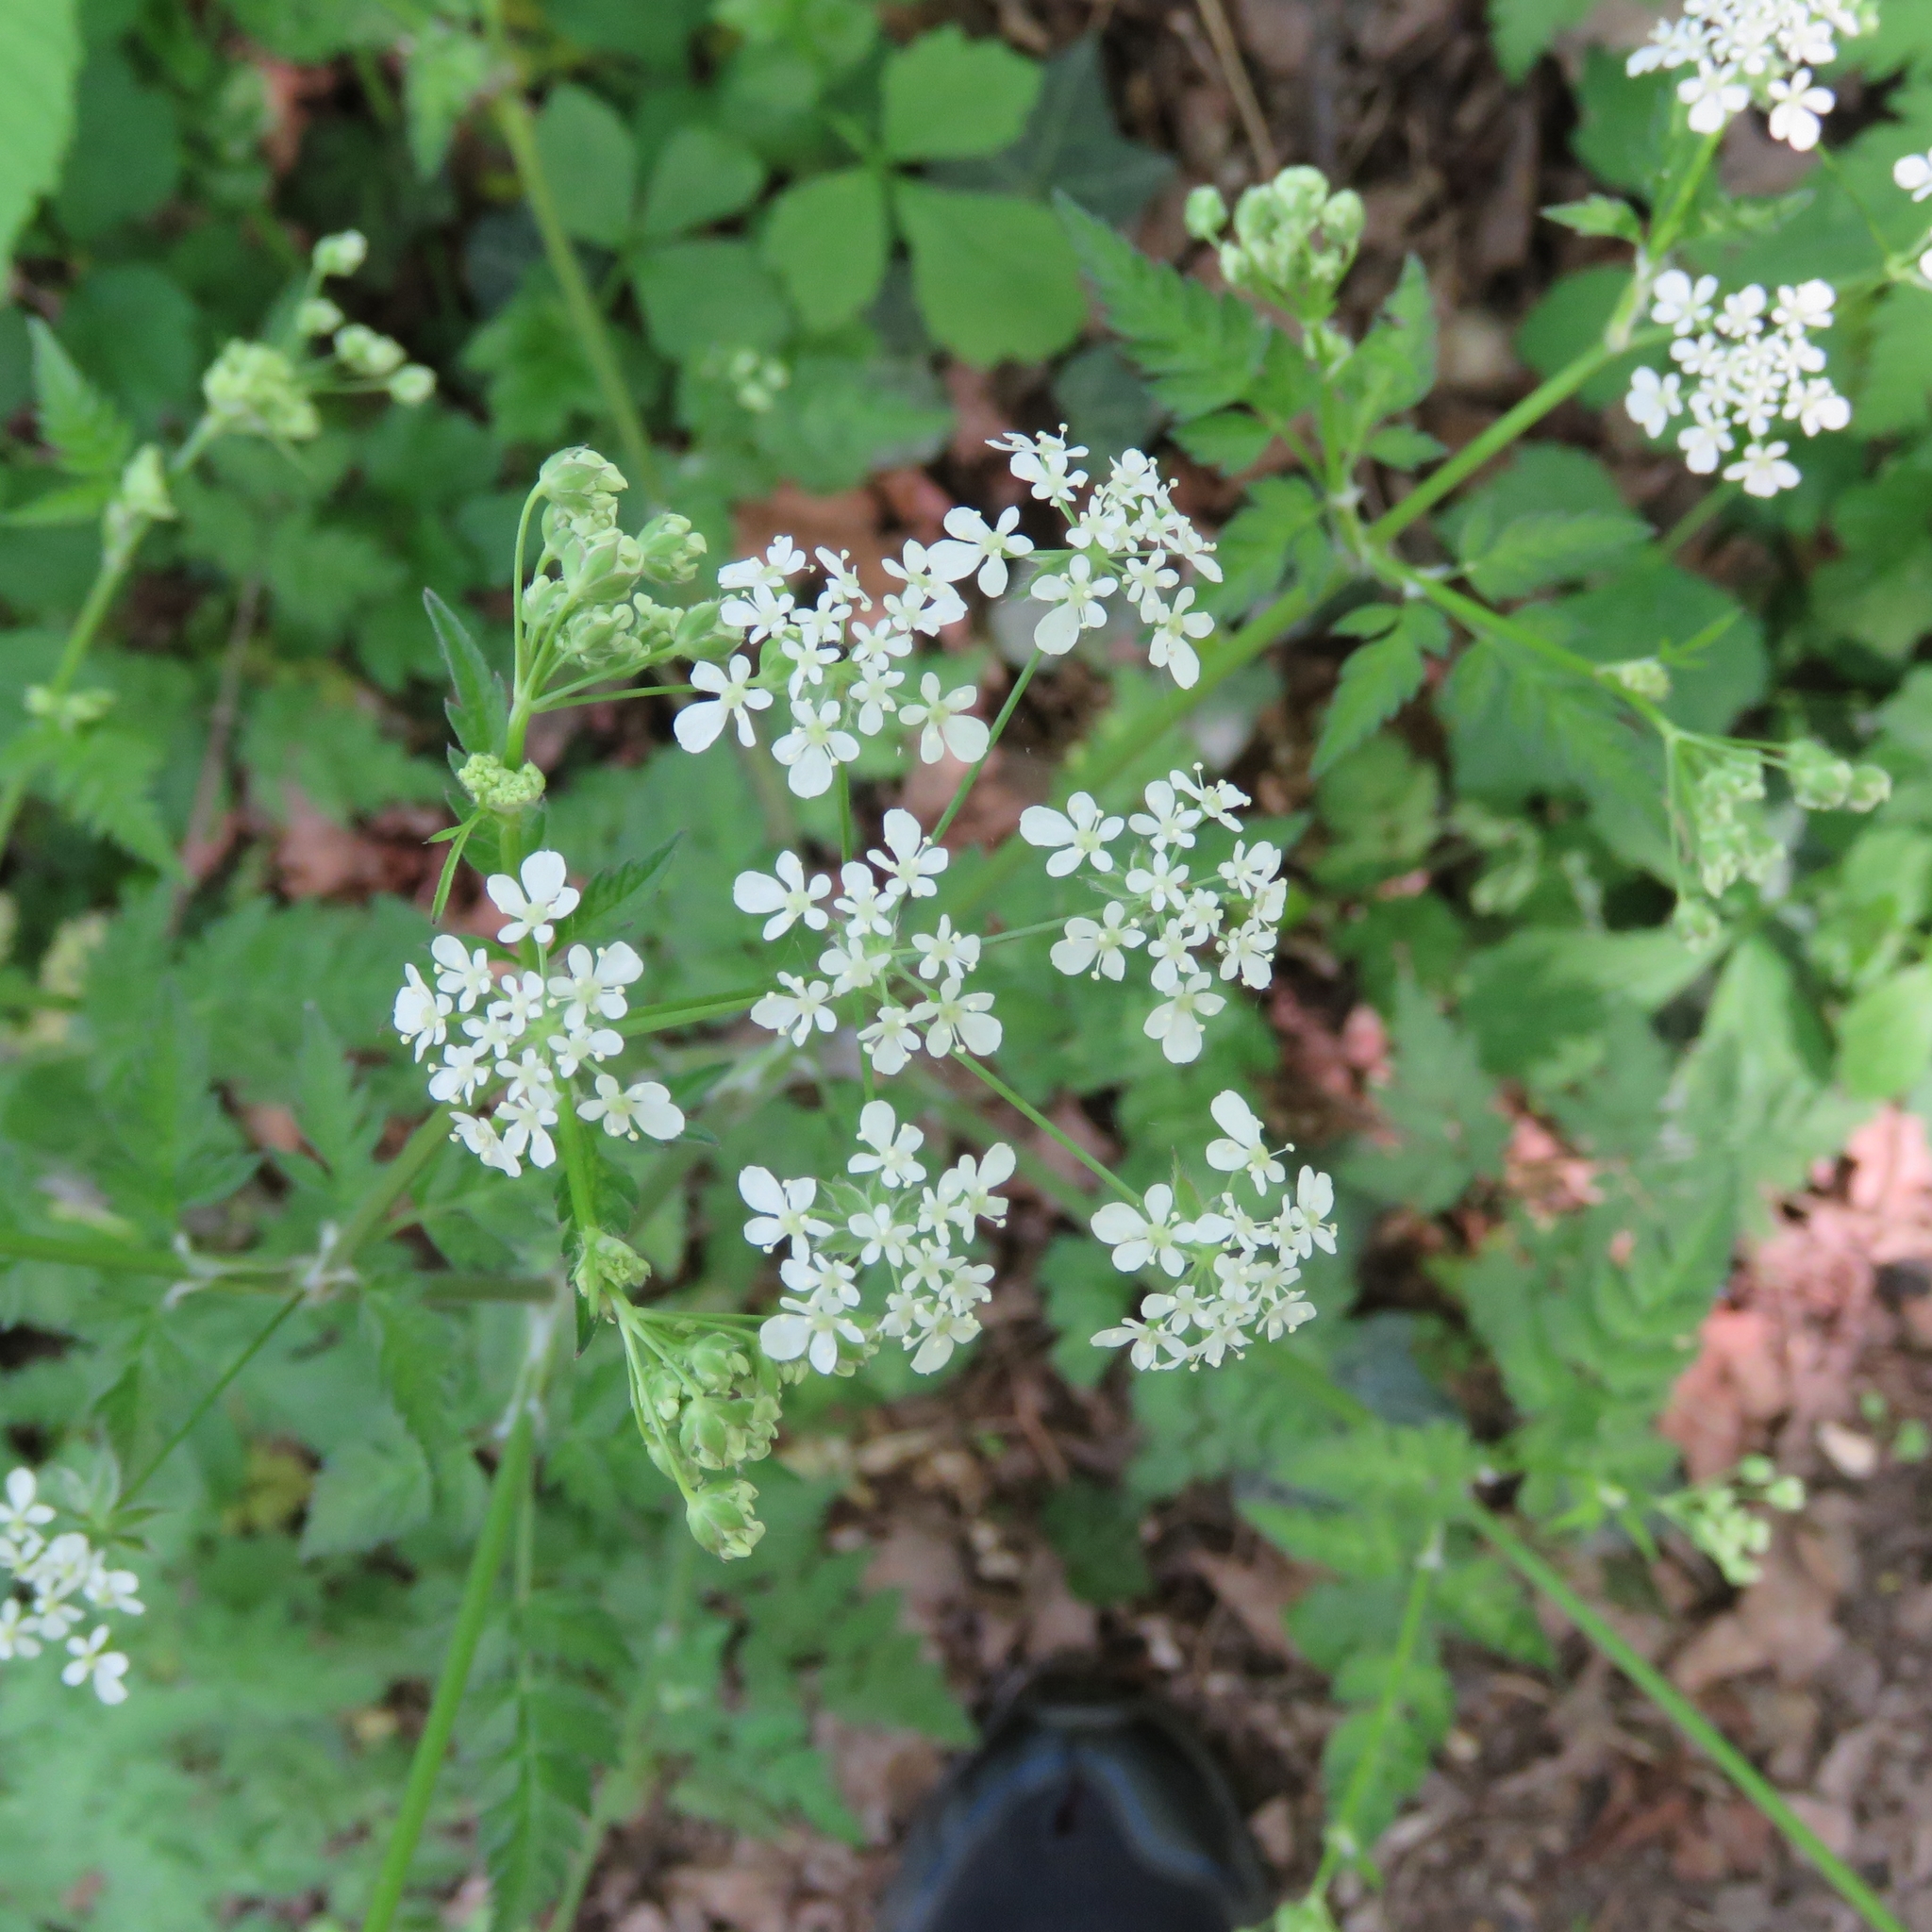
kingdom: Plantae
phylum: Tracheophyta
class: Magnoliopsida
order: Apiales
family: Apiaceae
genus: Anthriscus
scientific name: Anthriscus sylvestris
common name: Cow parsley
